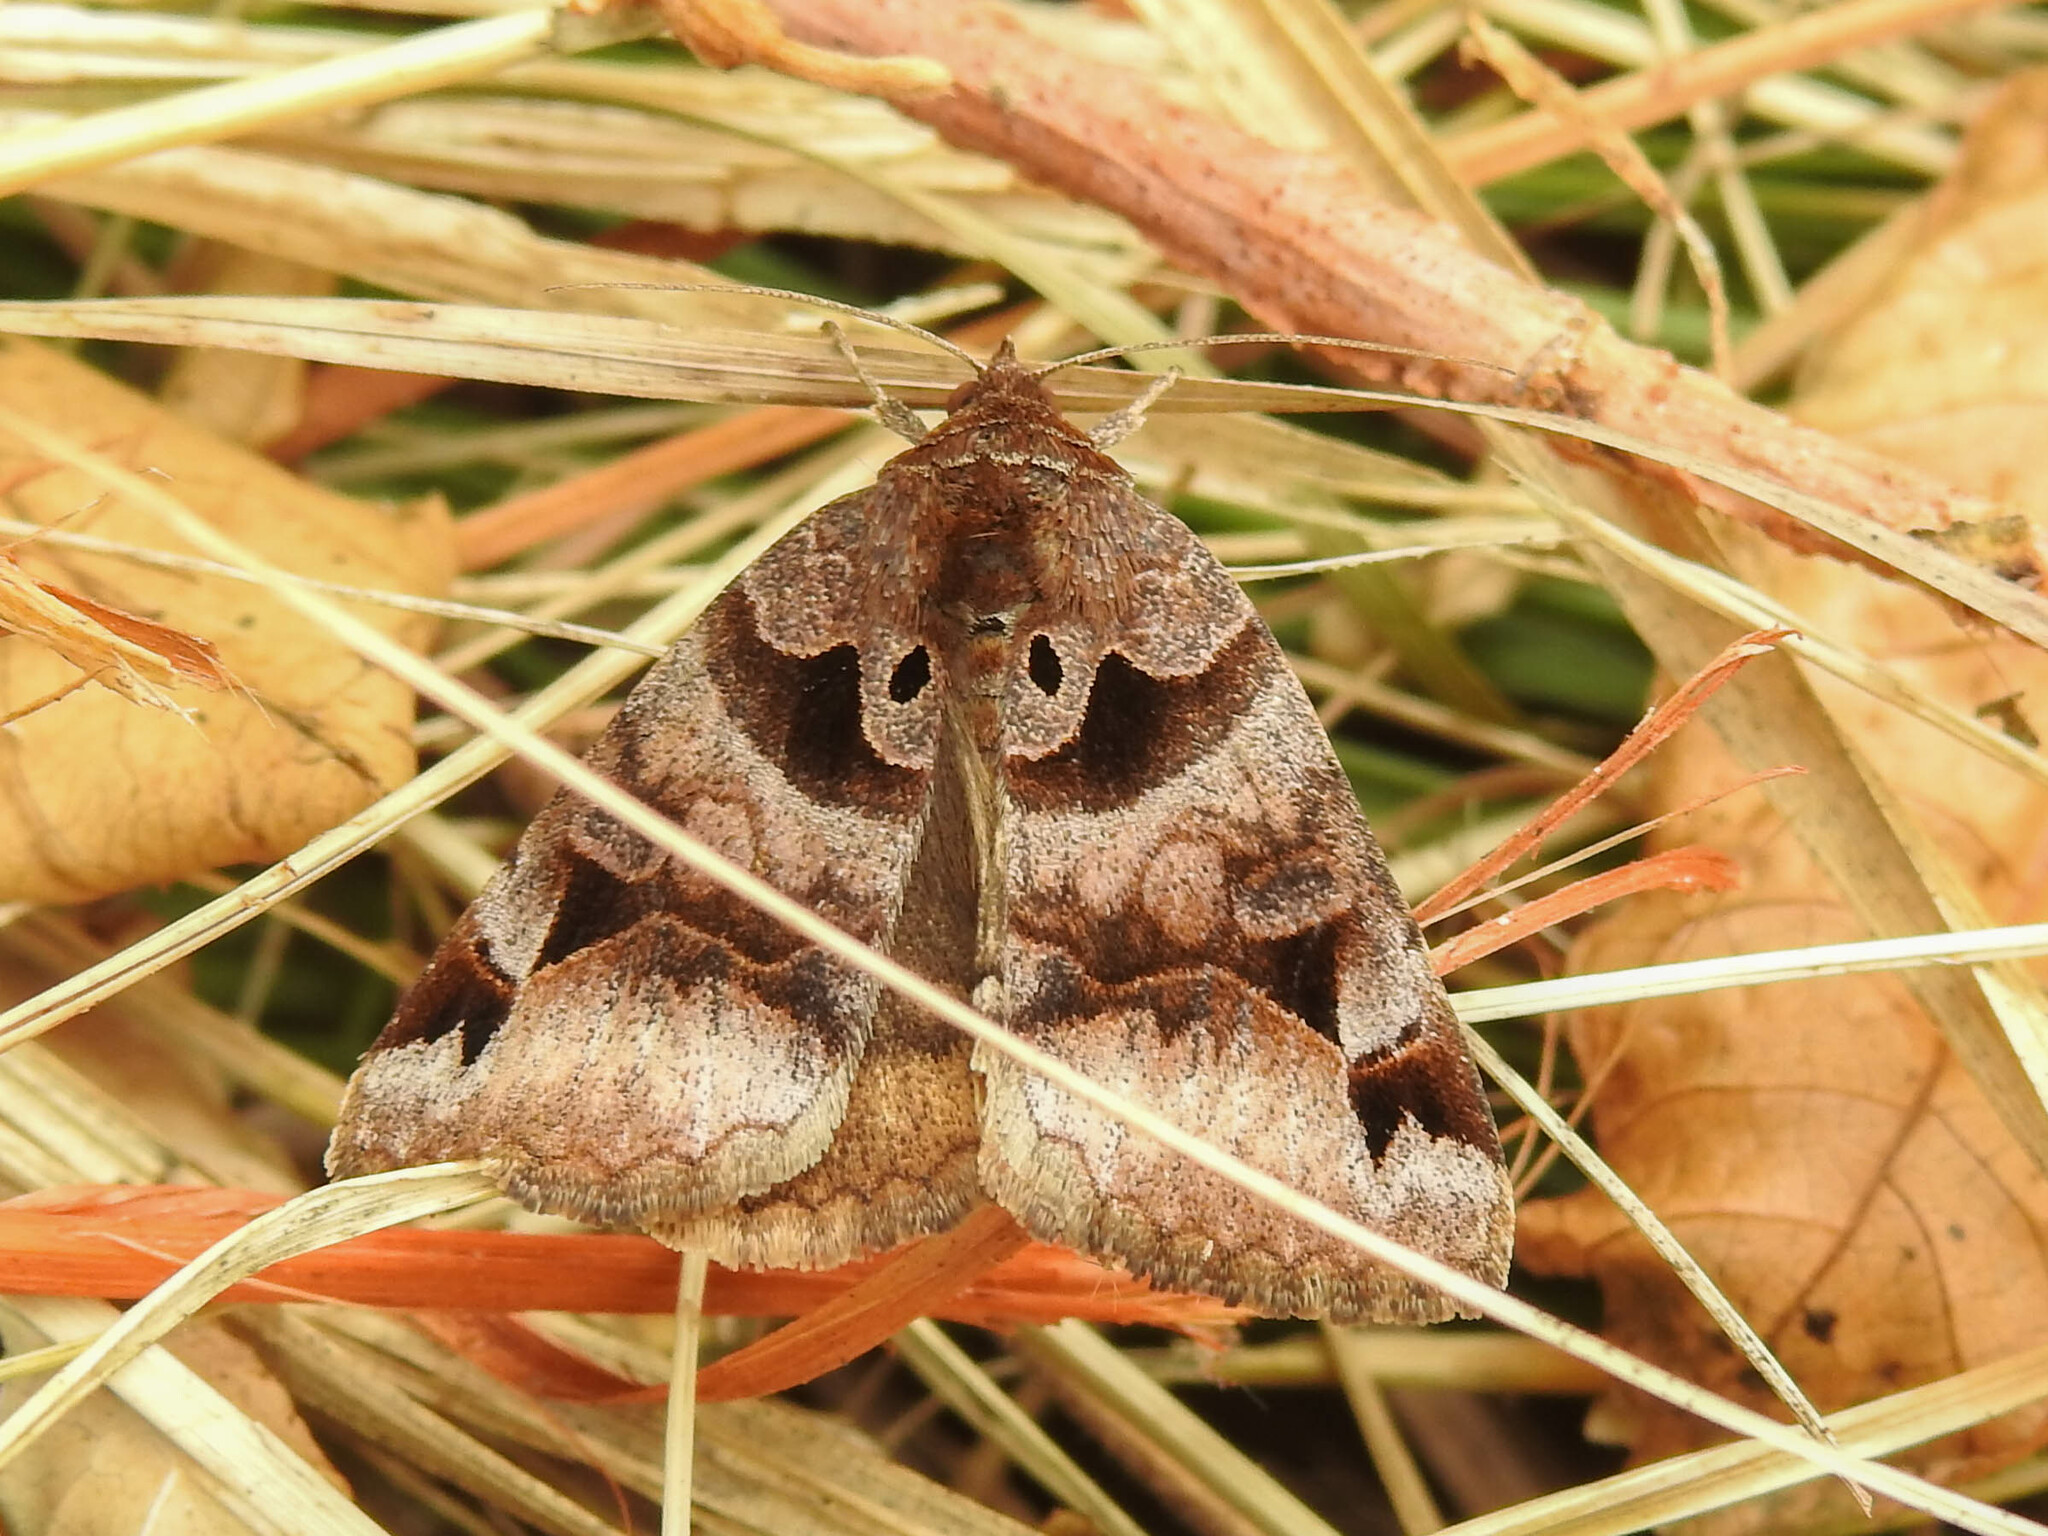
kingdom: Animalia
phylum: Arthropoda
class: Insecta
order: Lepidoptera
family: Erebidae
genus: Euclidia
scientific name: Euclidia cuspidea
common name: Toothed somberwing
